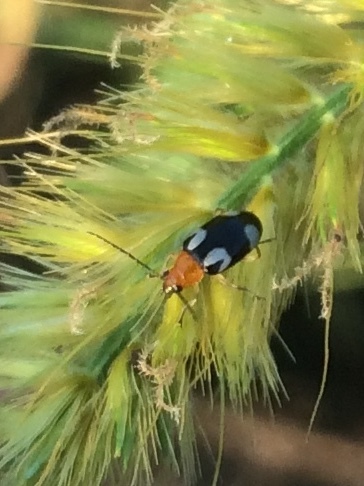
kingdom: Animalia
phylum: Arthropoda
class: Insecta
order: Coleoptera
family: Chrysomelidae
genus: Monolepta
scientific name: Monolepta signata
